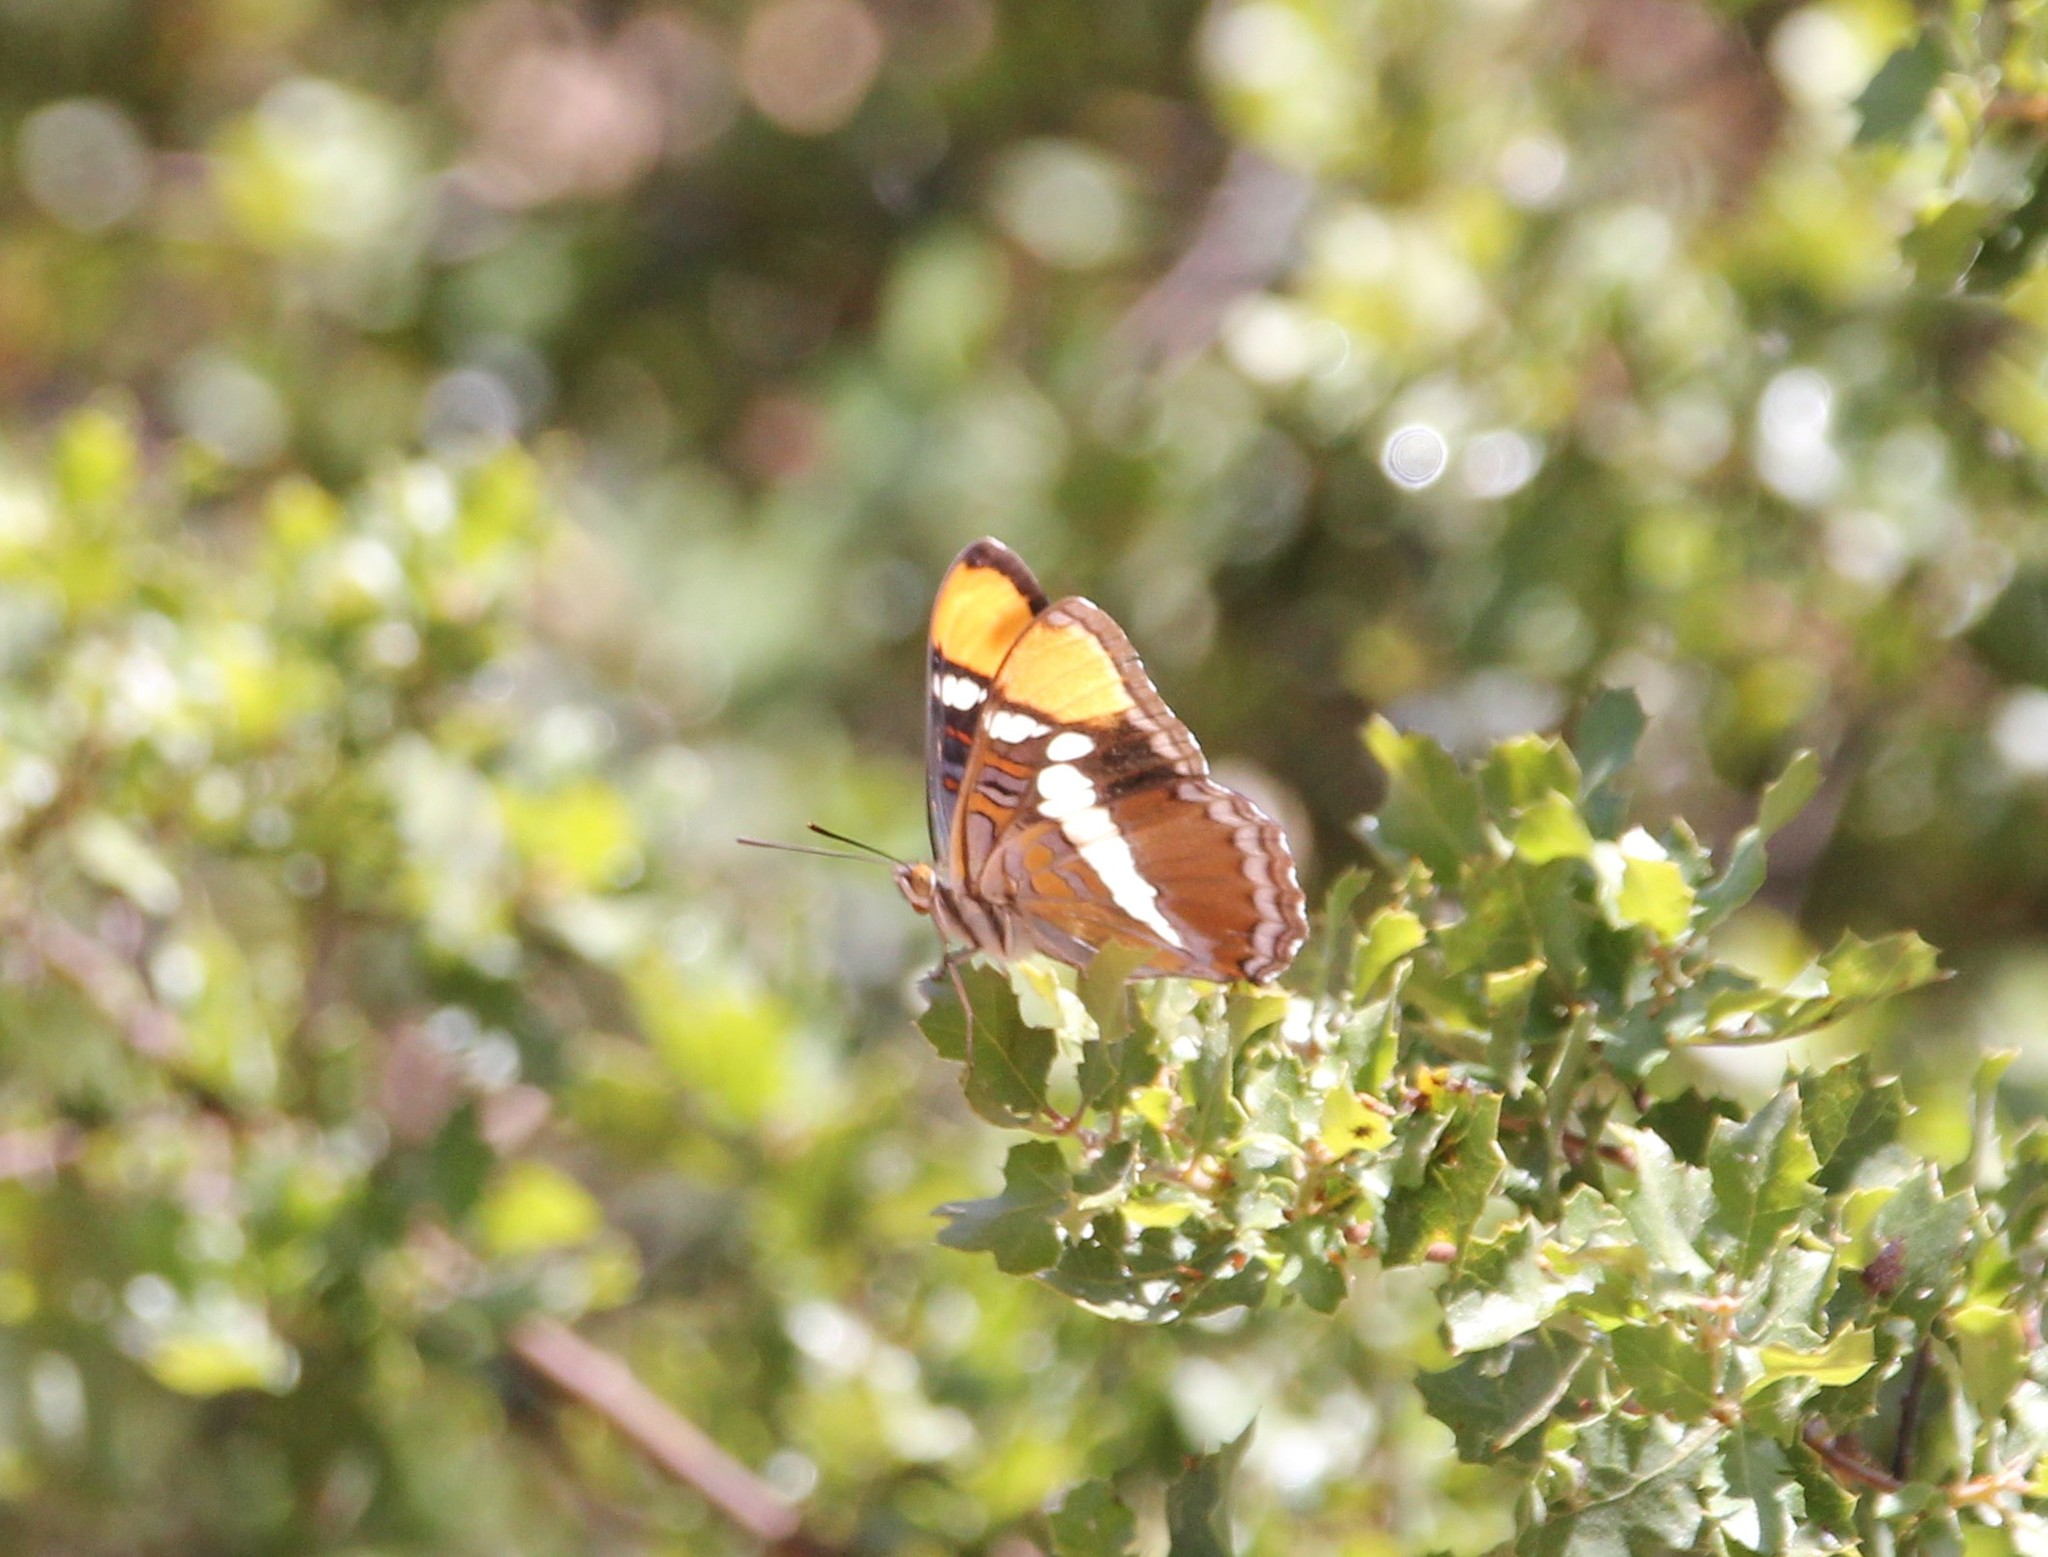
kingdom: Animalia
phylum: Arthropoda
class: Insecta
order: Lepidoptera
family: Nymphalidae
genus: Limenitis
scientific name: Limenitis bredowii
